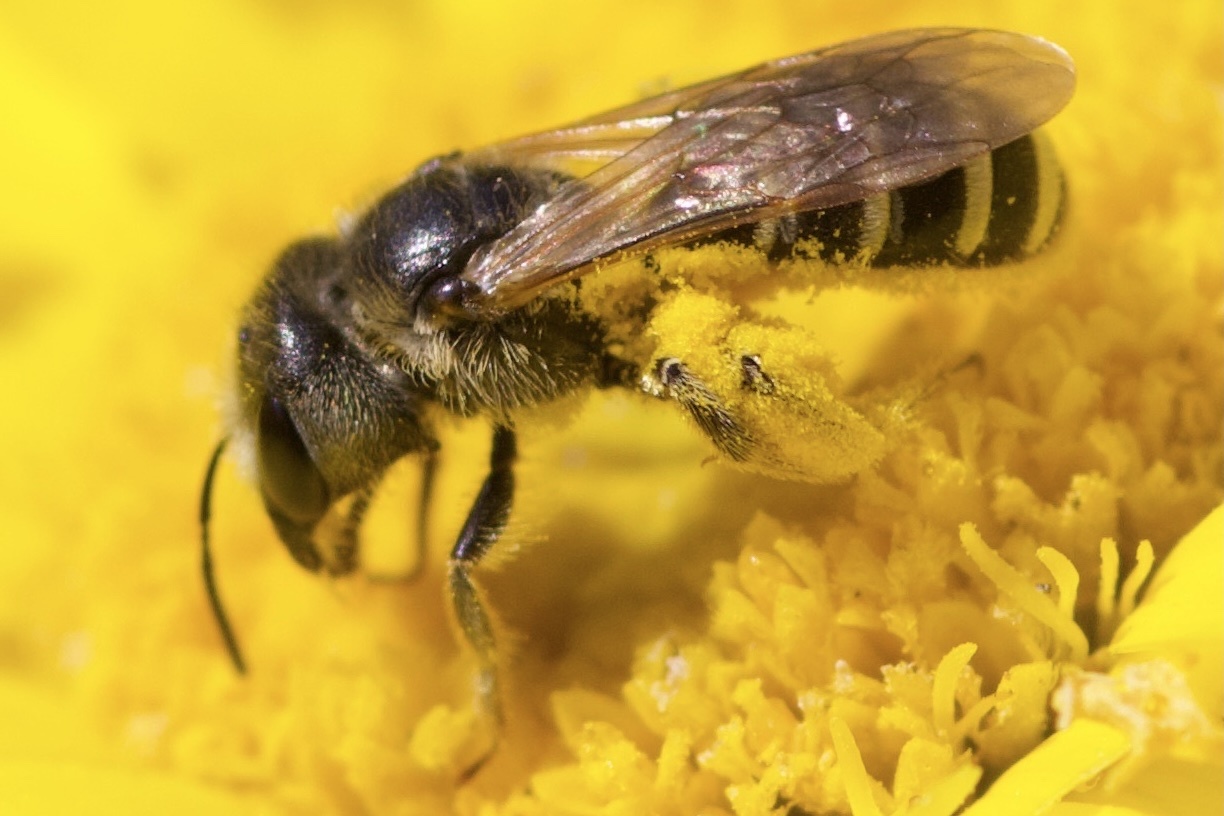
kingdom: Animalia
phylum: Arthropoda
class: Insecta
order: Hymenoptera
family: Halictidae
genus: Halictus
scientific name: Halictus ligatus
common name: Ligated furrow bee
